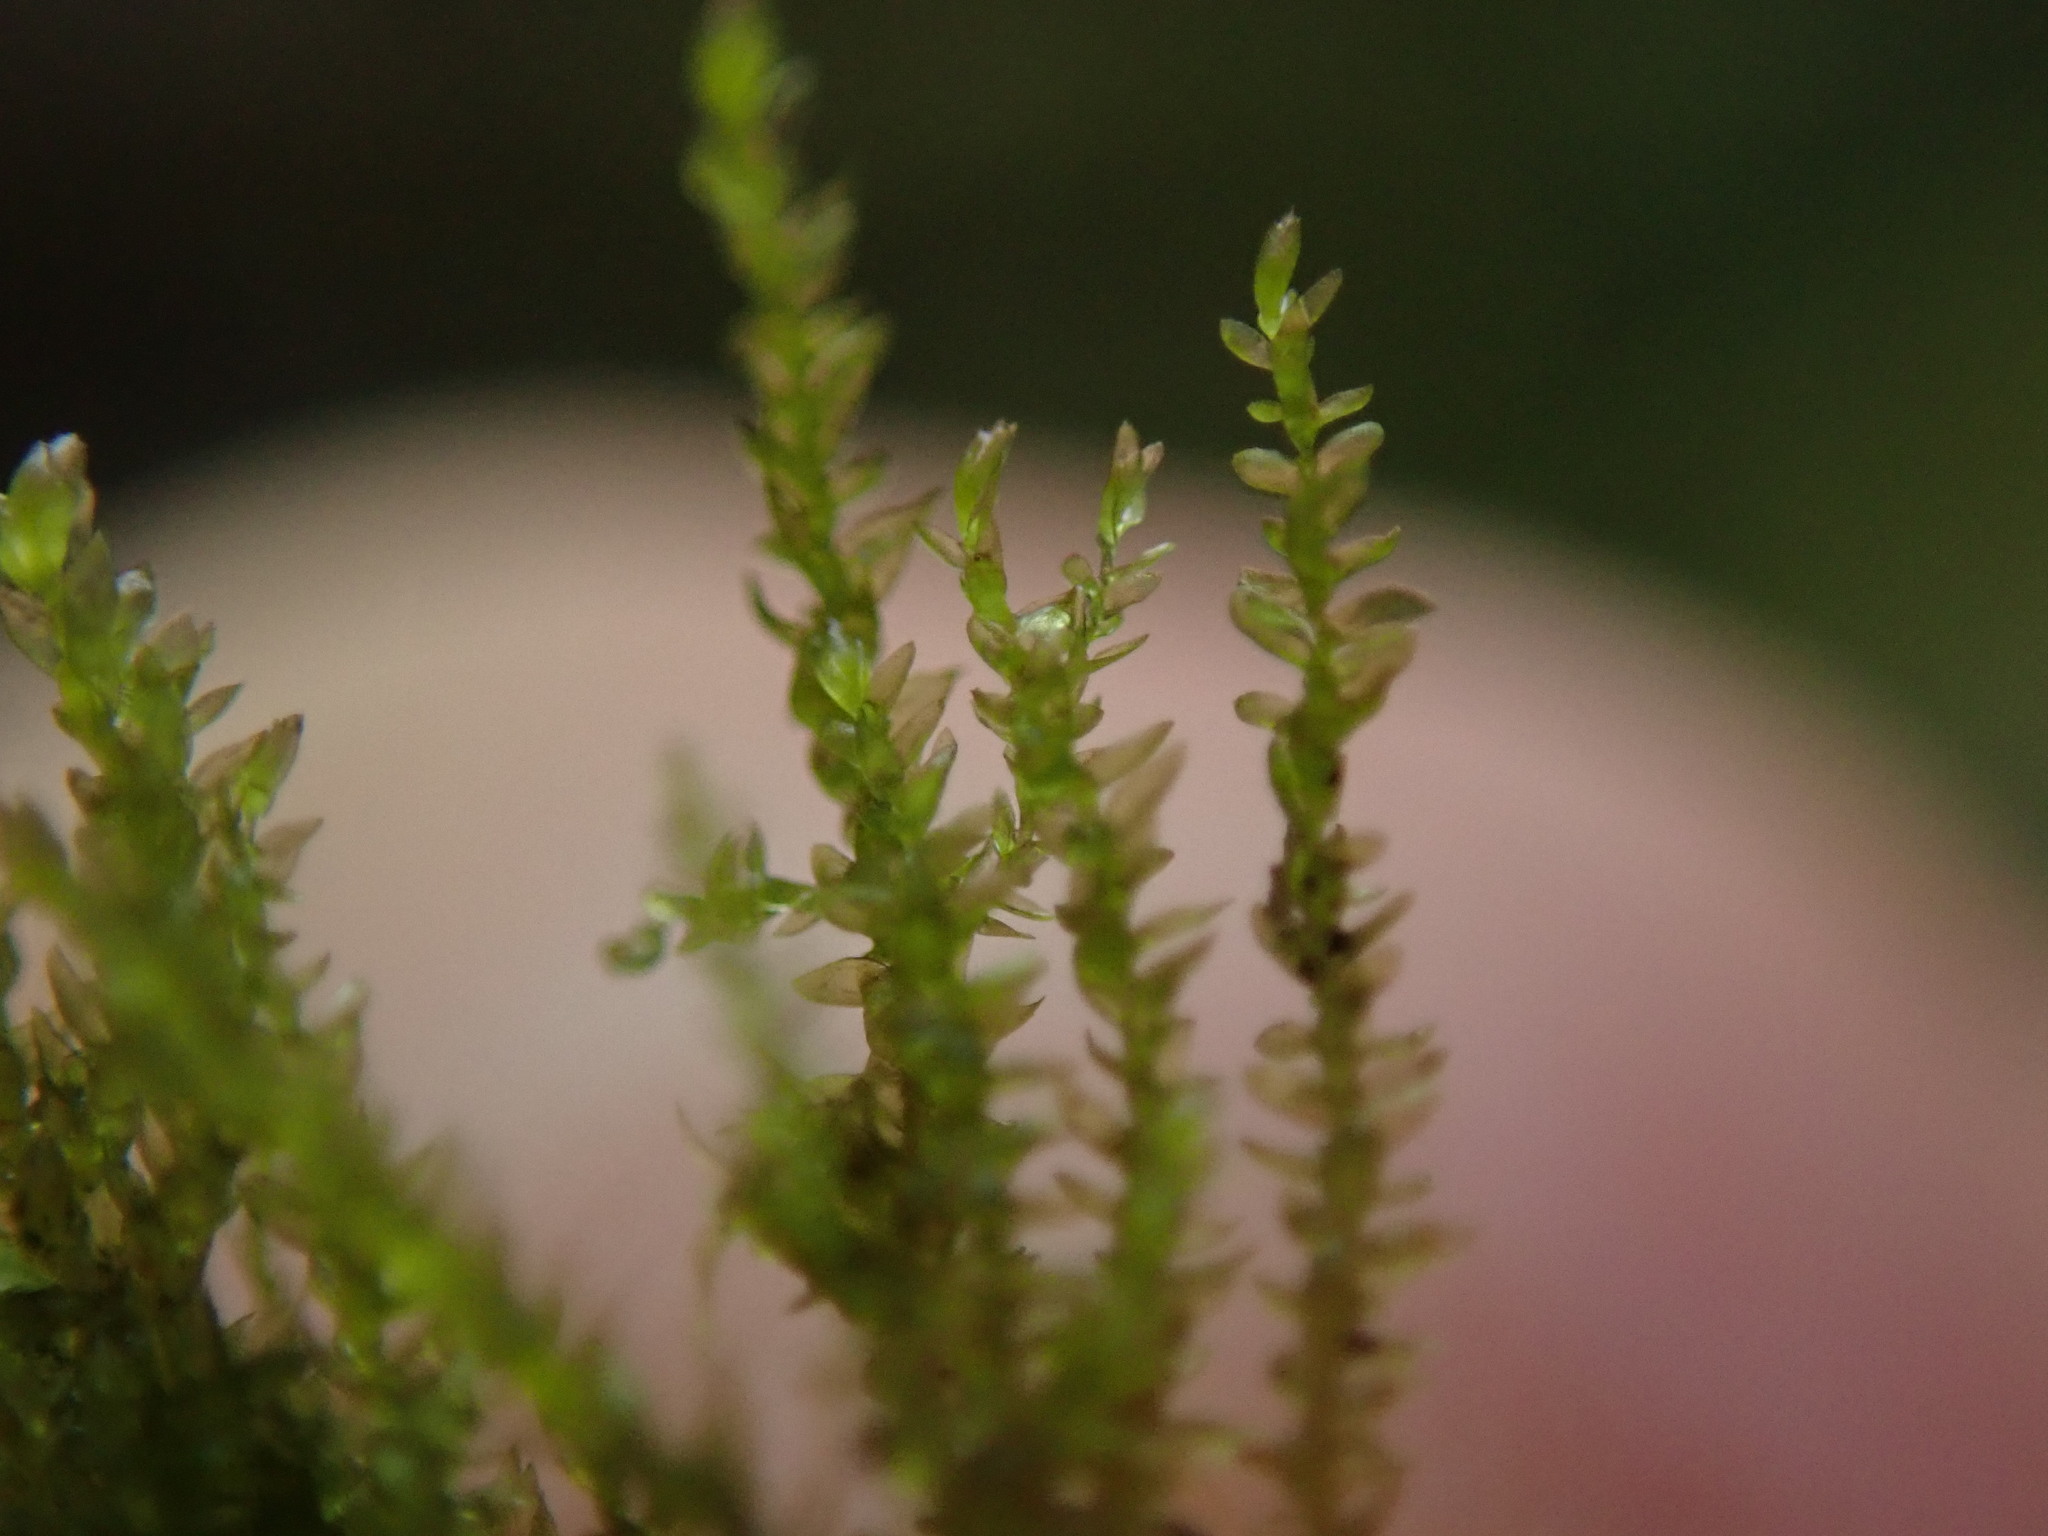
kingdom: Plantae
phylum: Bryophyta
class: Bryopsida
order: Hypnales
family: Lembophyllaceae
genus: Bryolawtonia
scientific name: Bryolawtonia vancouveriensis
